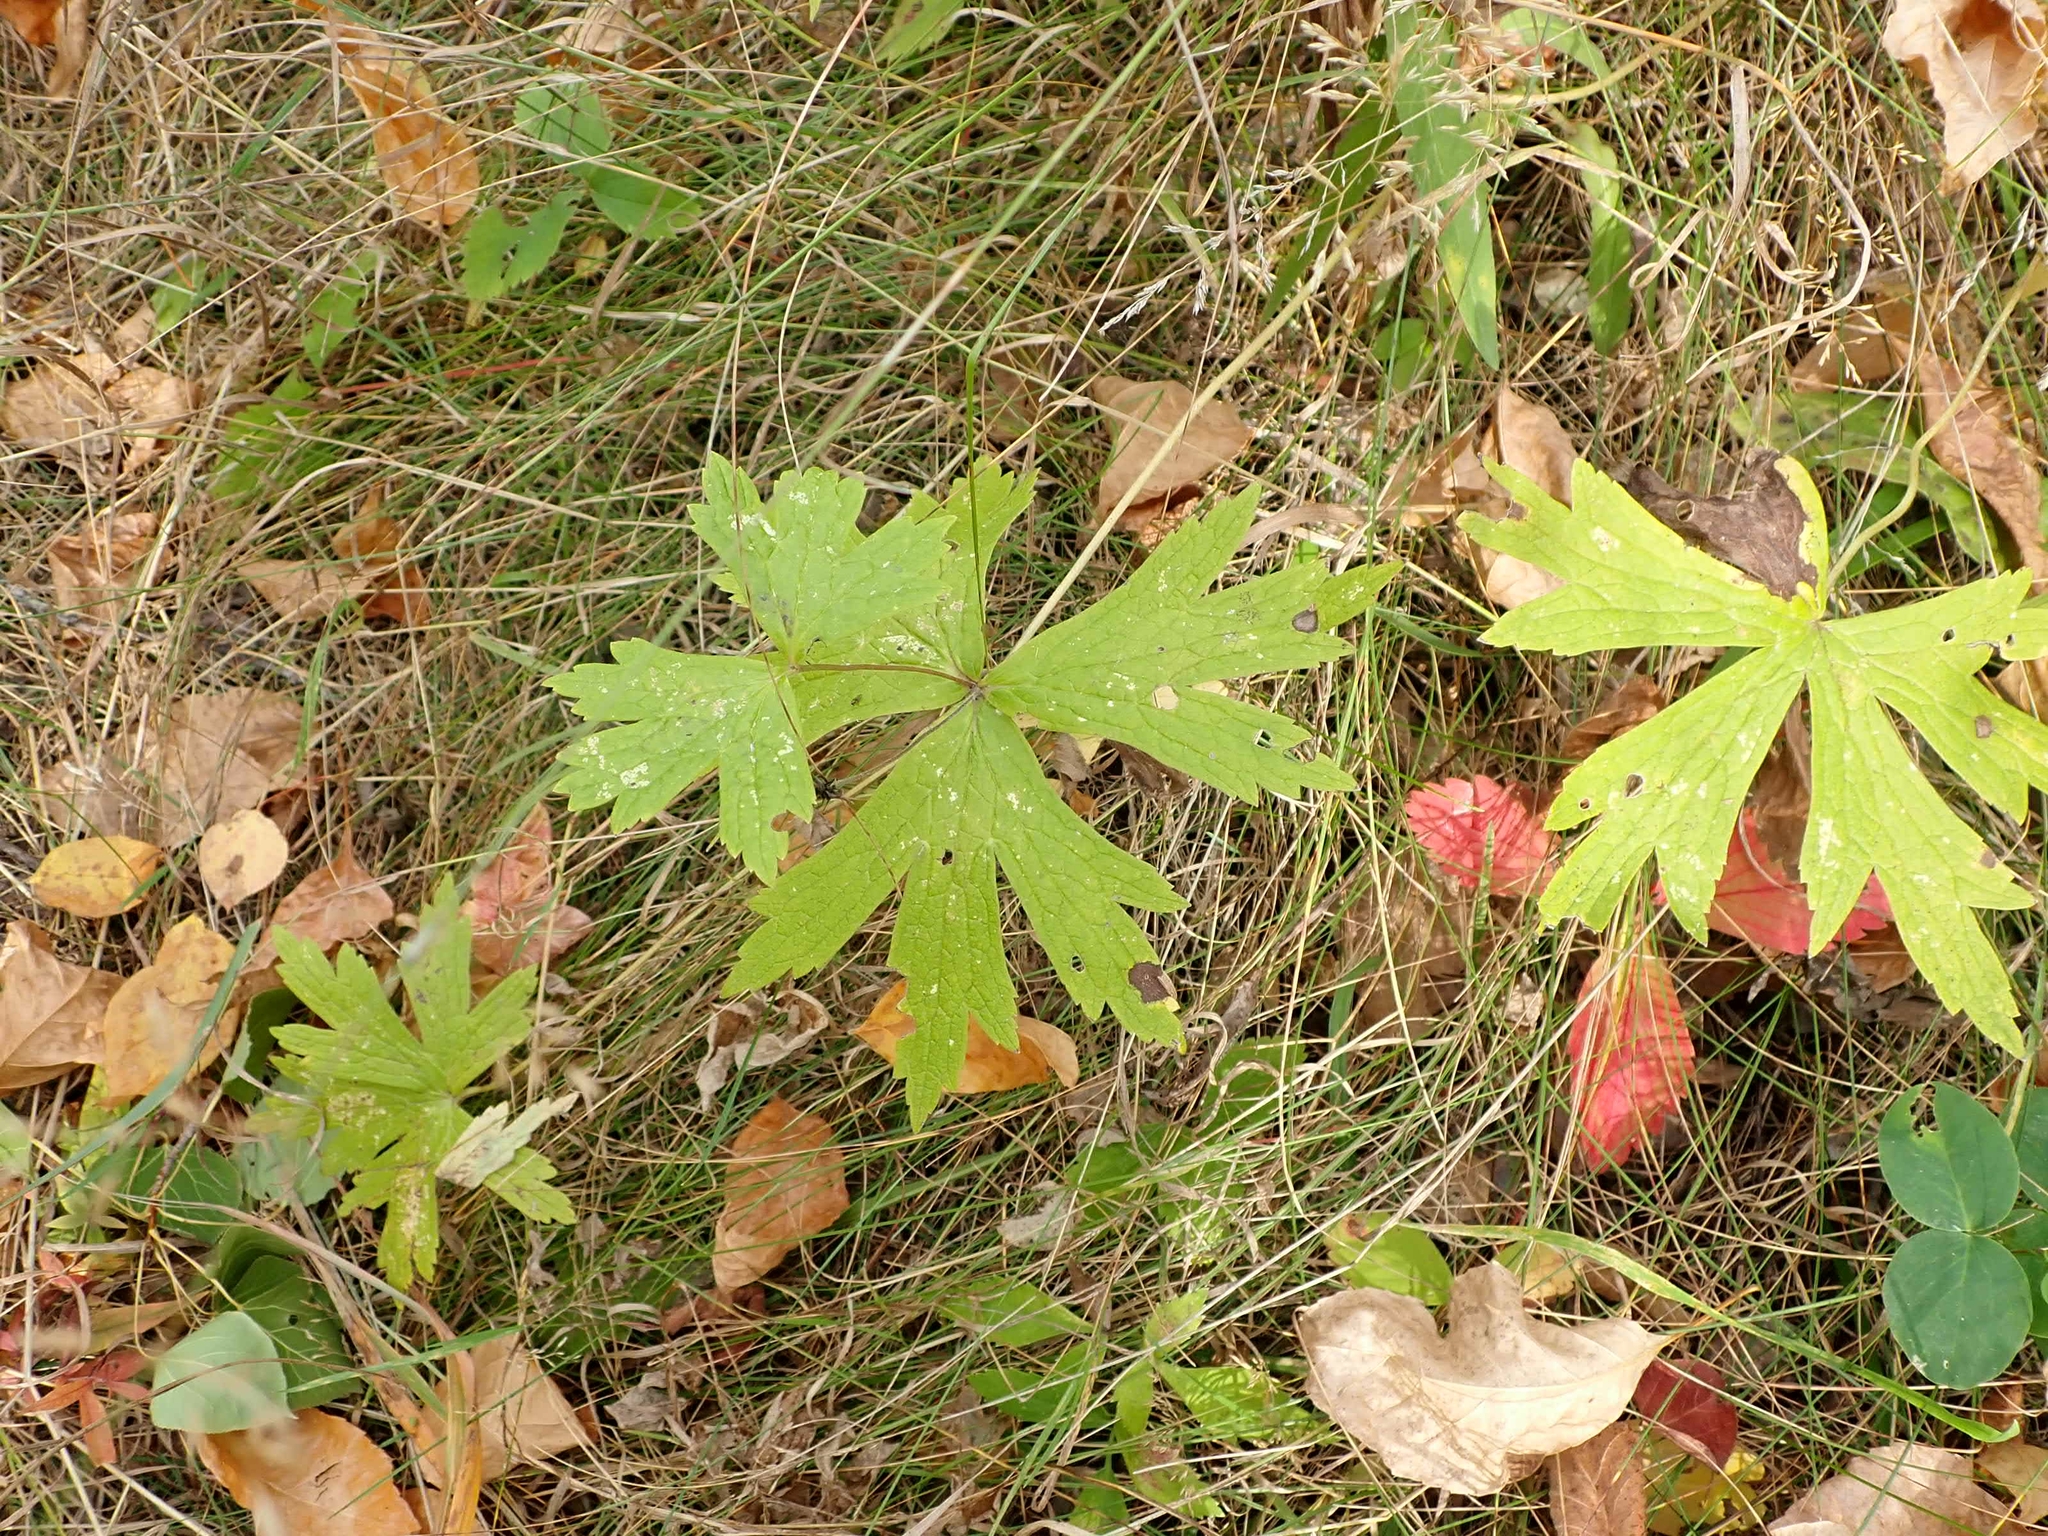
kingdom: Plantae
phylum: Tracheophyta
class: Magnoliopsida
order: Ranunculales
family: Ranunculaceae
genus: Anemonastrum
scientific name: Anemonastrum canadense
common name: Canada anemone
